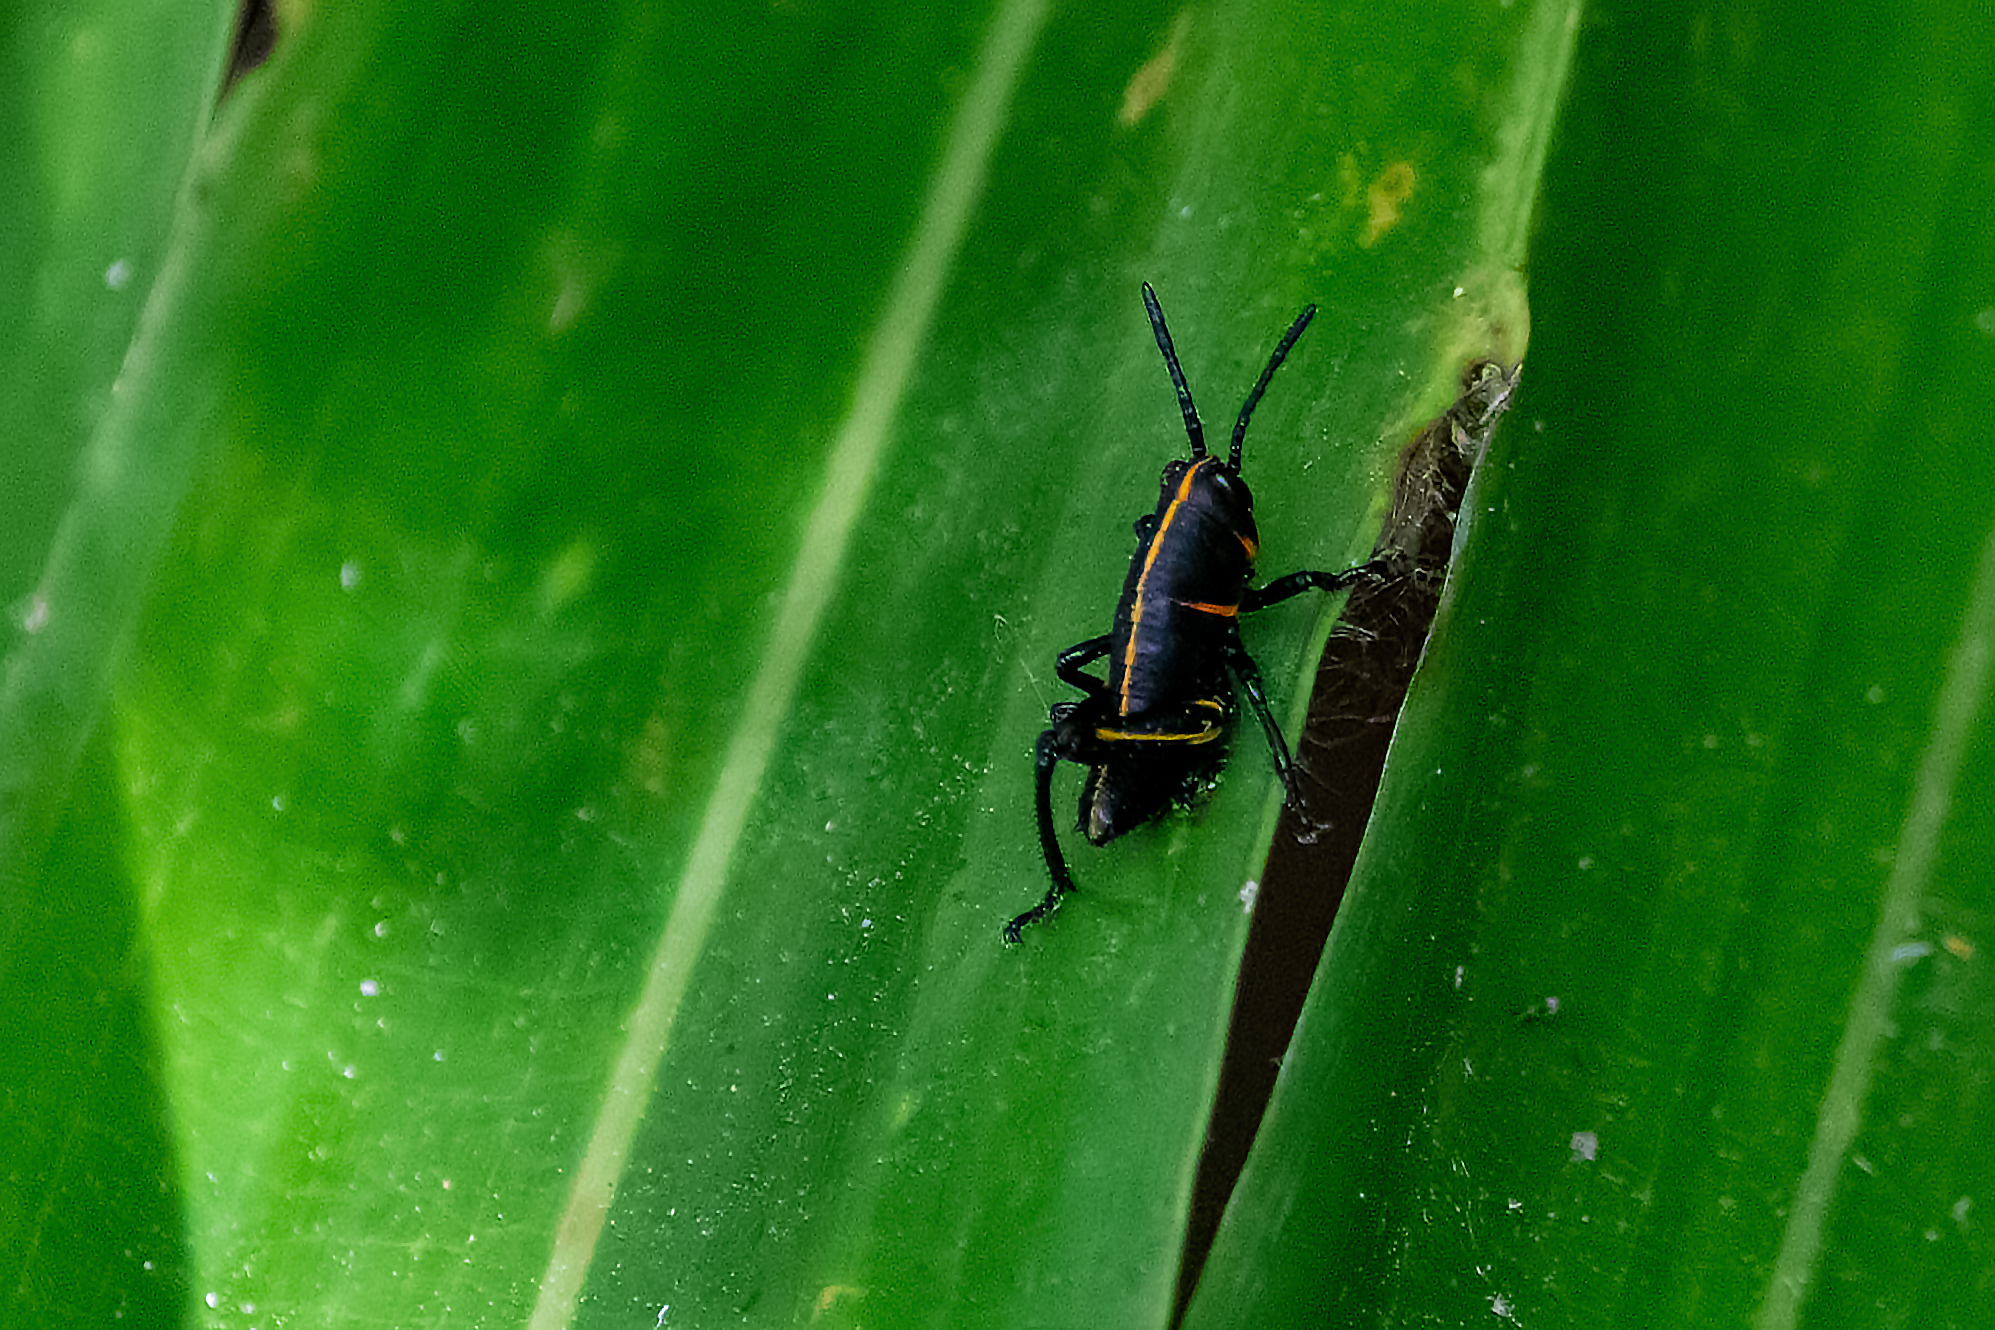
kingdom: Animalia
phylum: Arthropoda
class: Insecta
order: Orthoptera
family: Romaleidae
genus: Romalea
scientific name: Romalea microptera
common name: Eastern lubber grasshopper
